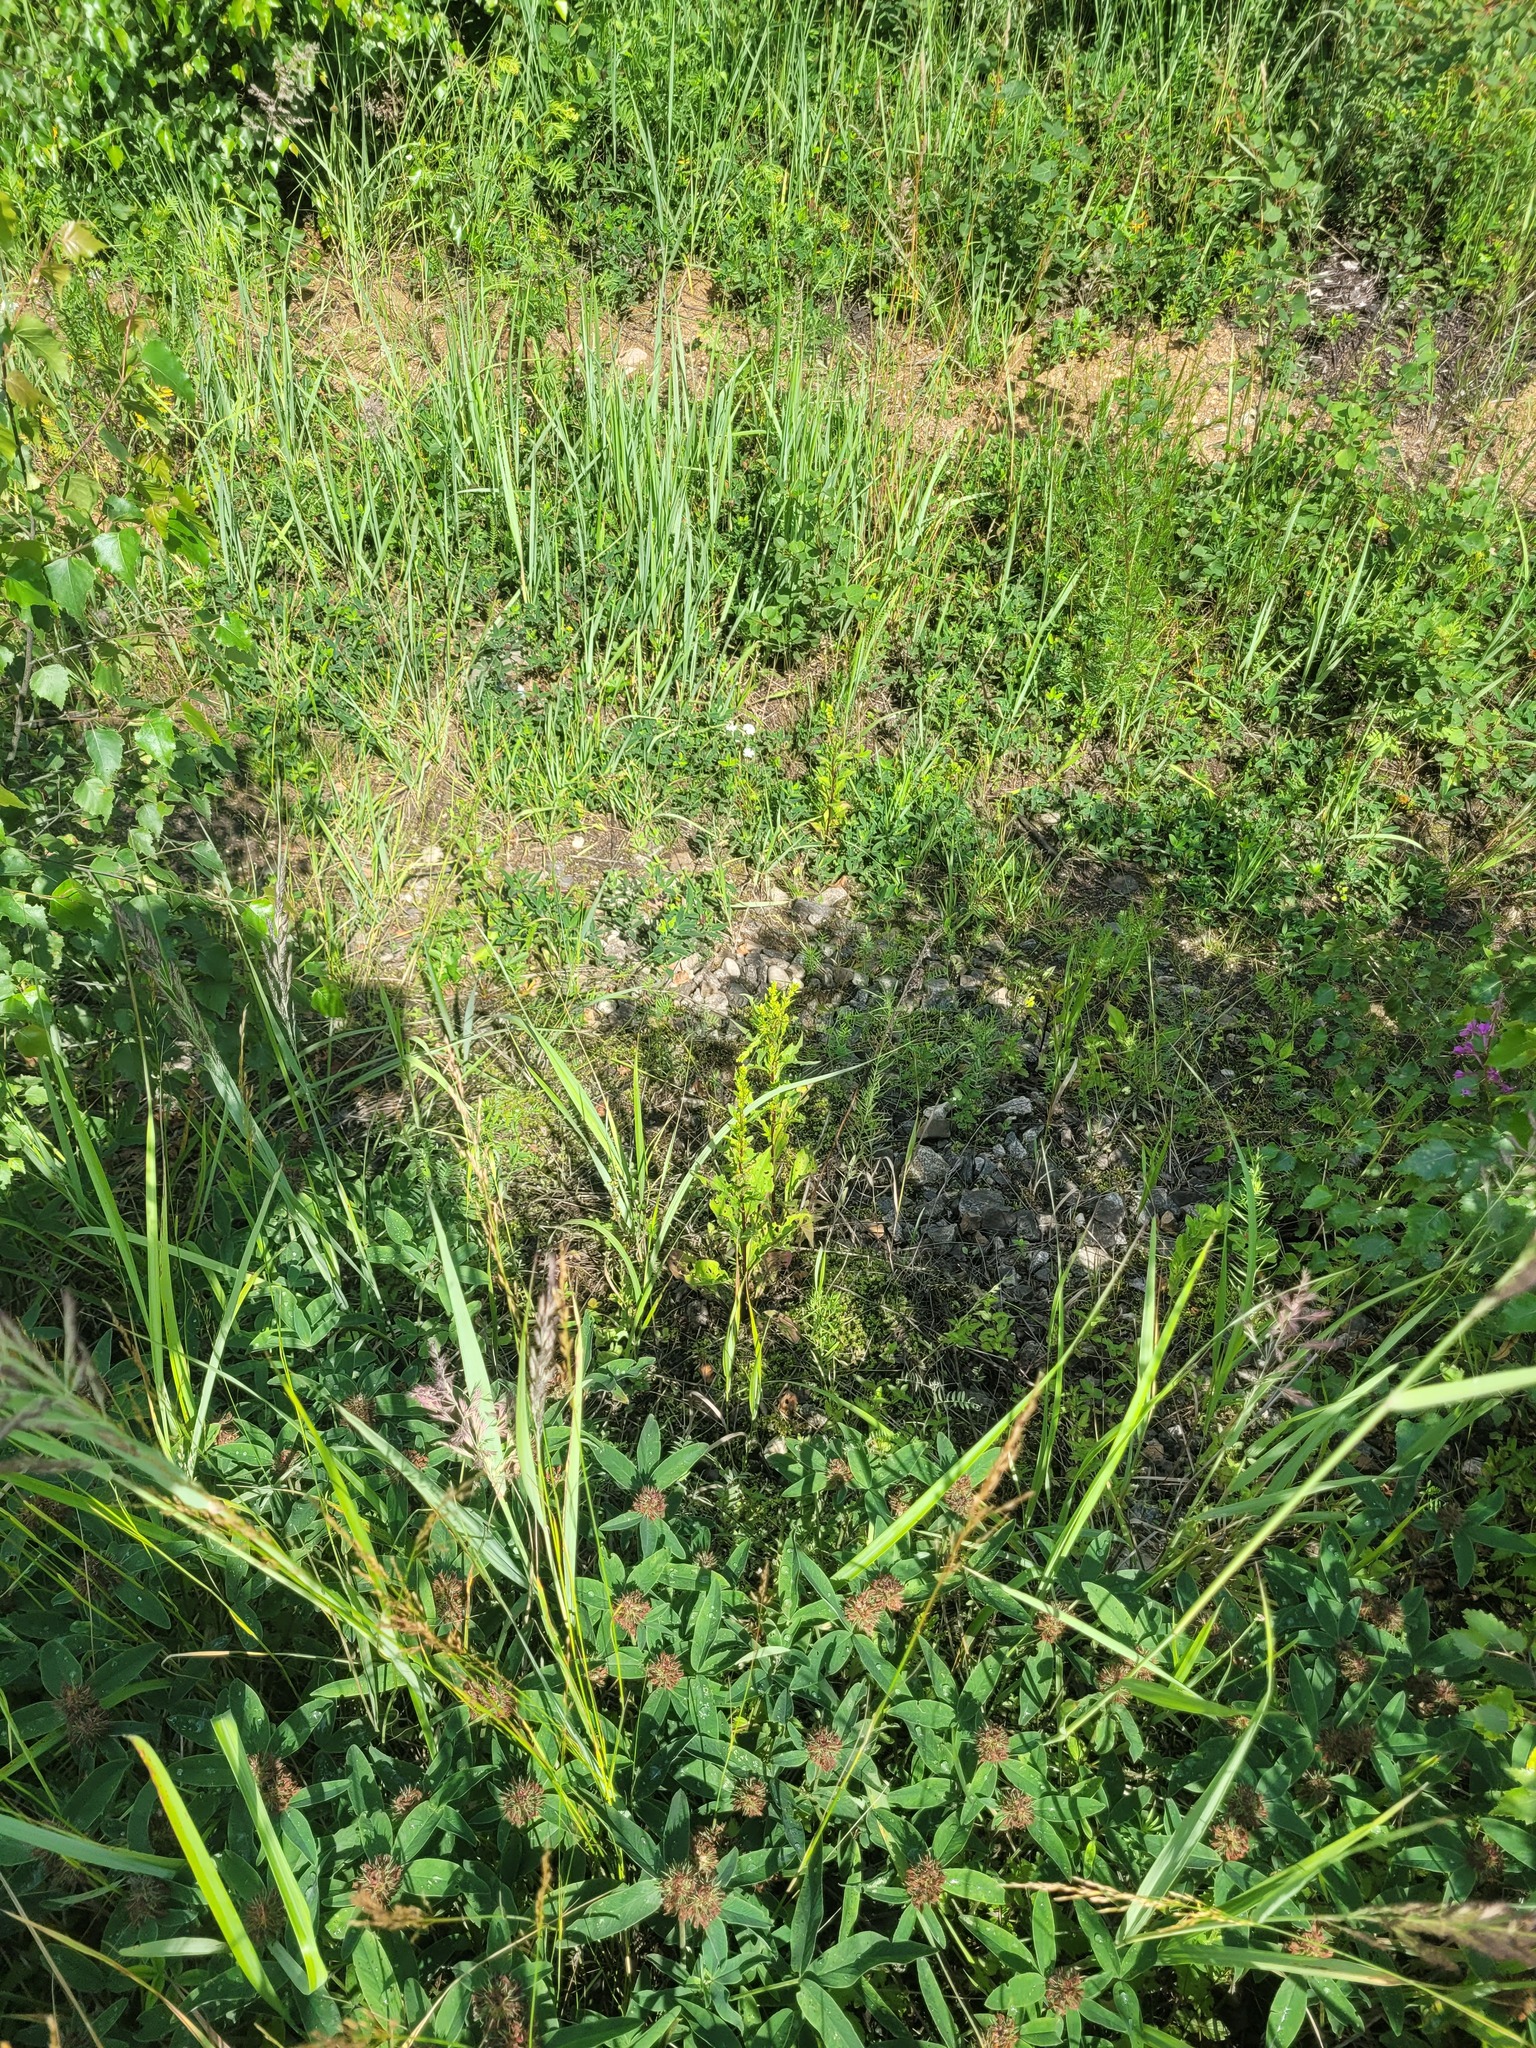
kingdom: Plantae
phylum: Tracheophyta
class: Magnoliopsida
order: Asterales
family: Asteraceae
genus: Solidago
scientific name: Solidago virgaurea
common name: Goldenrod
